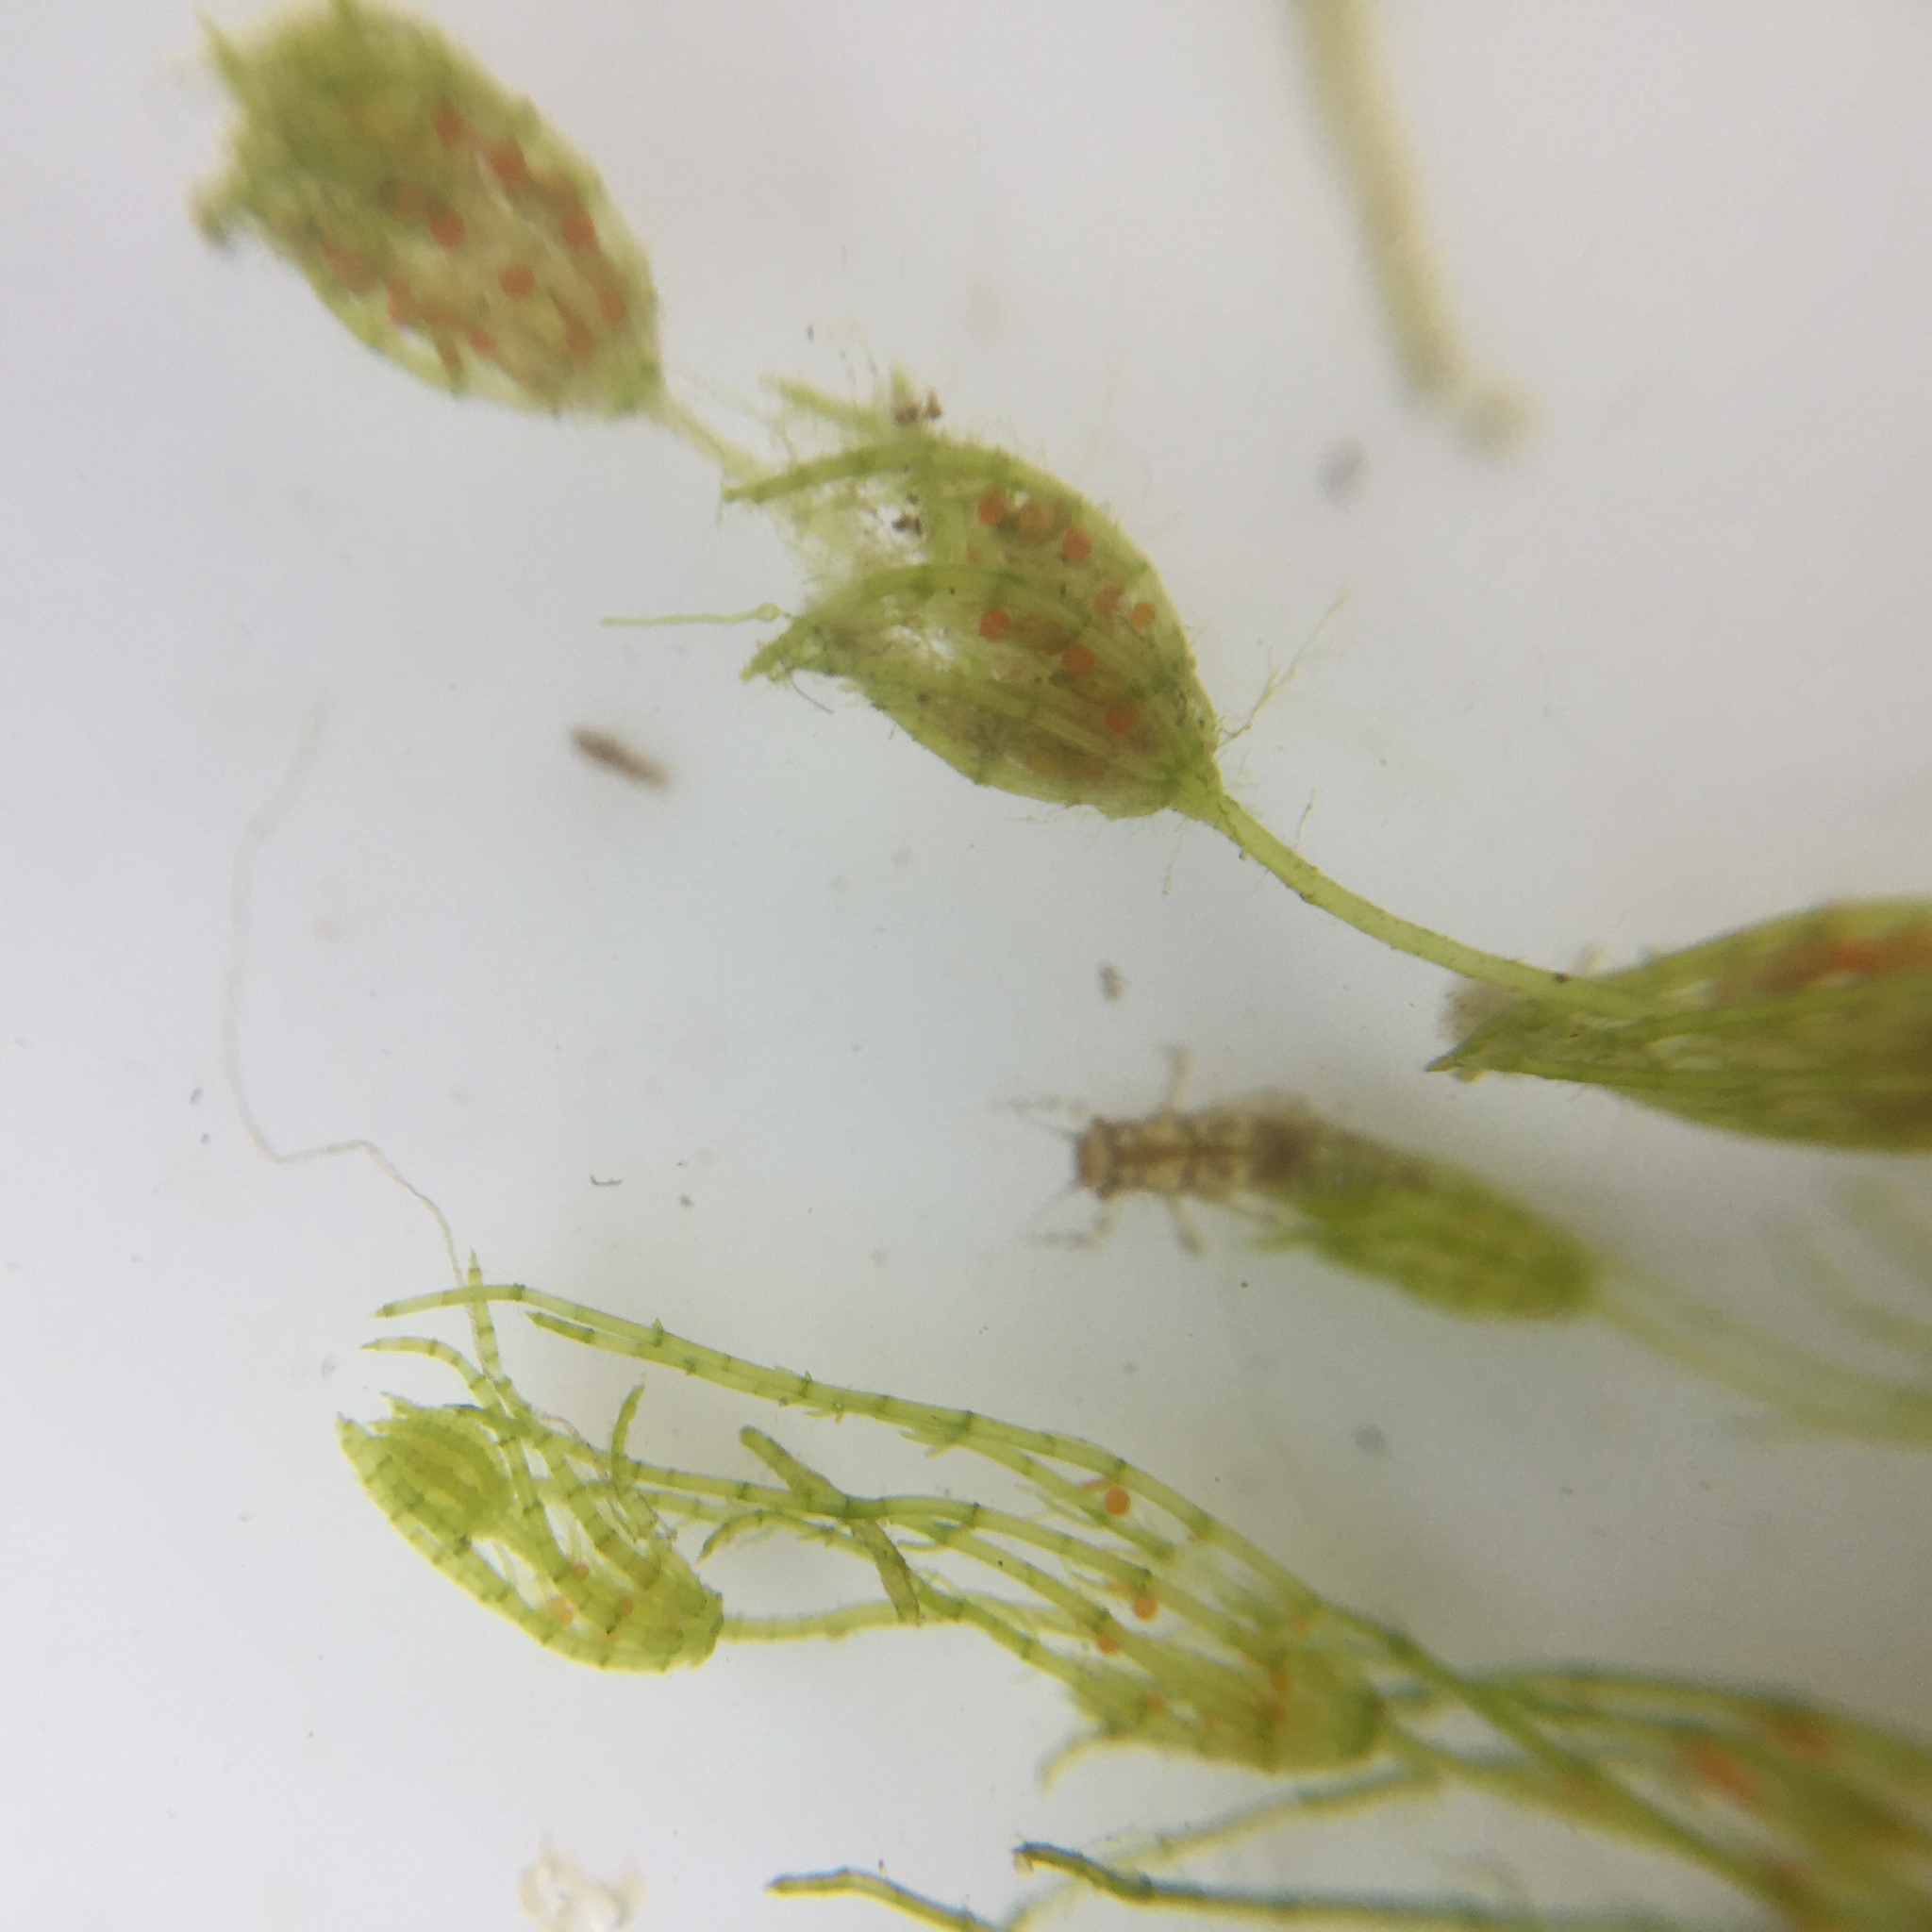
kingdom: Plantae
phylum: Charophyta
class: Charophyceae
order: Charales
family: Characeae
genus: Chara
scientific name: Chara virgata
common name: Delicate stonewort
